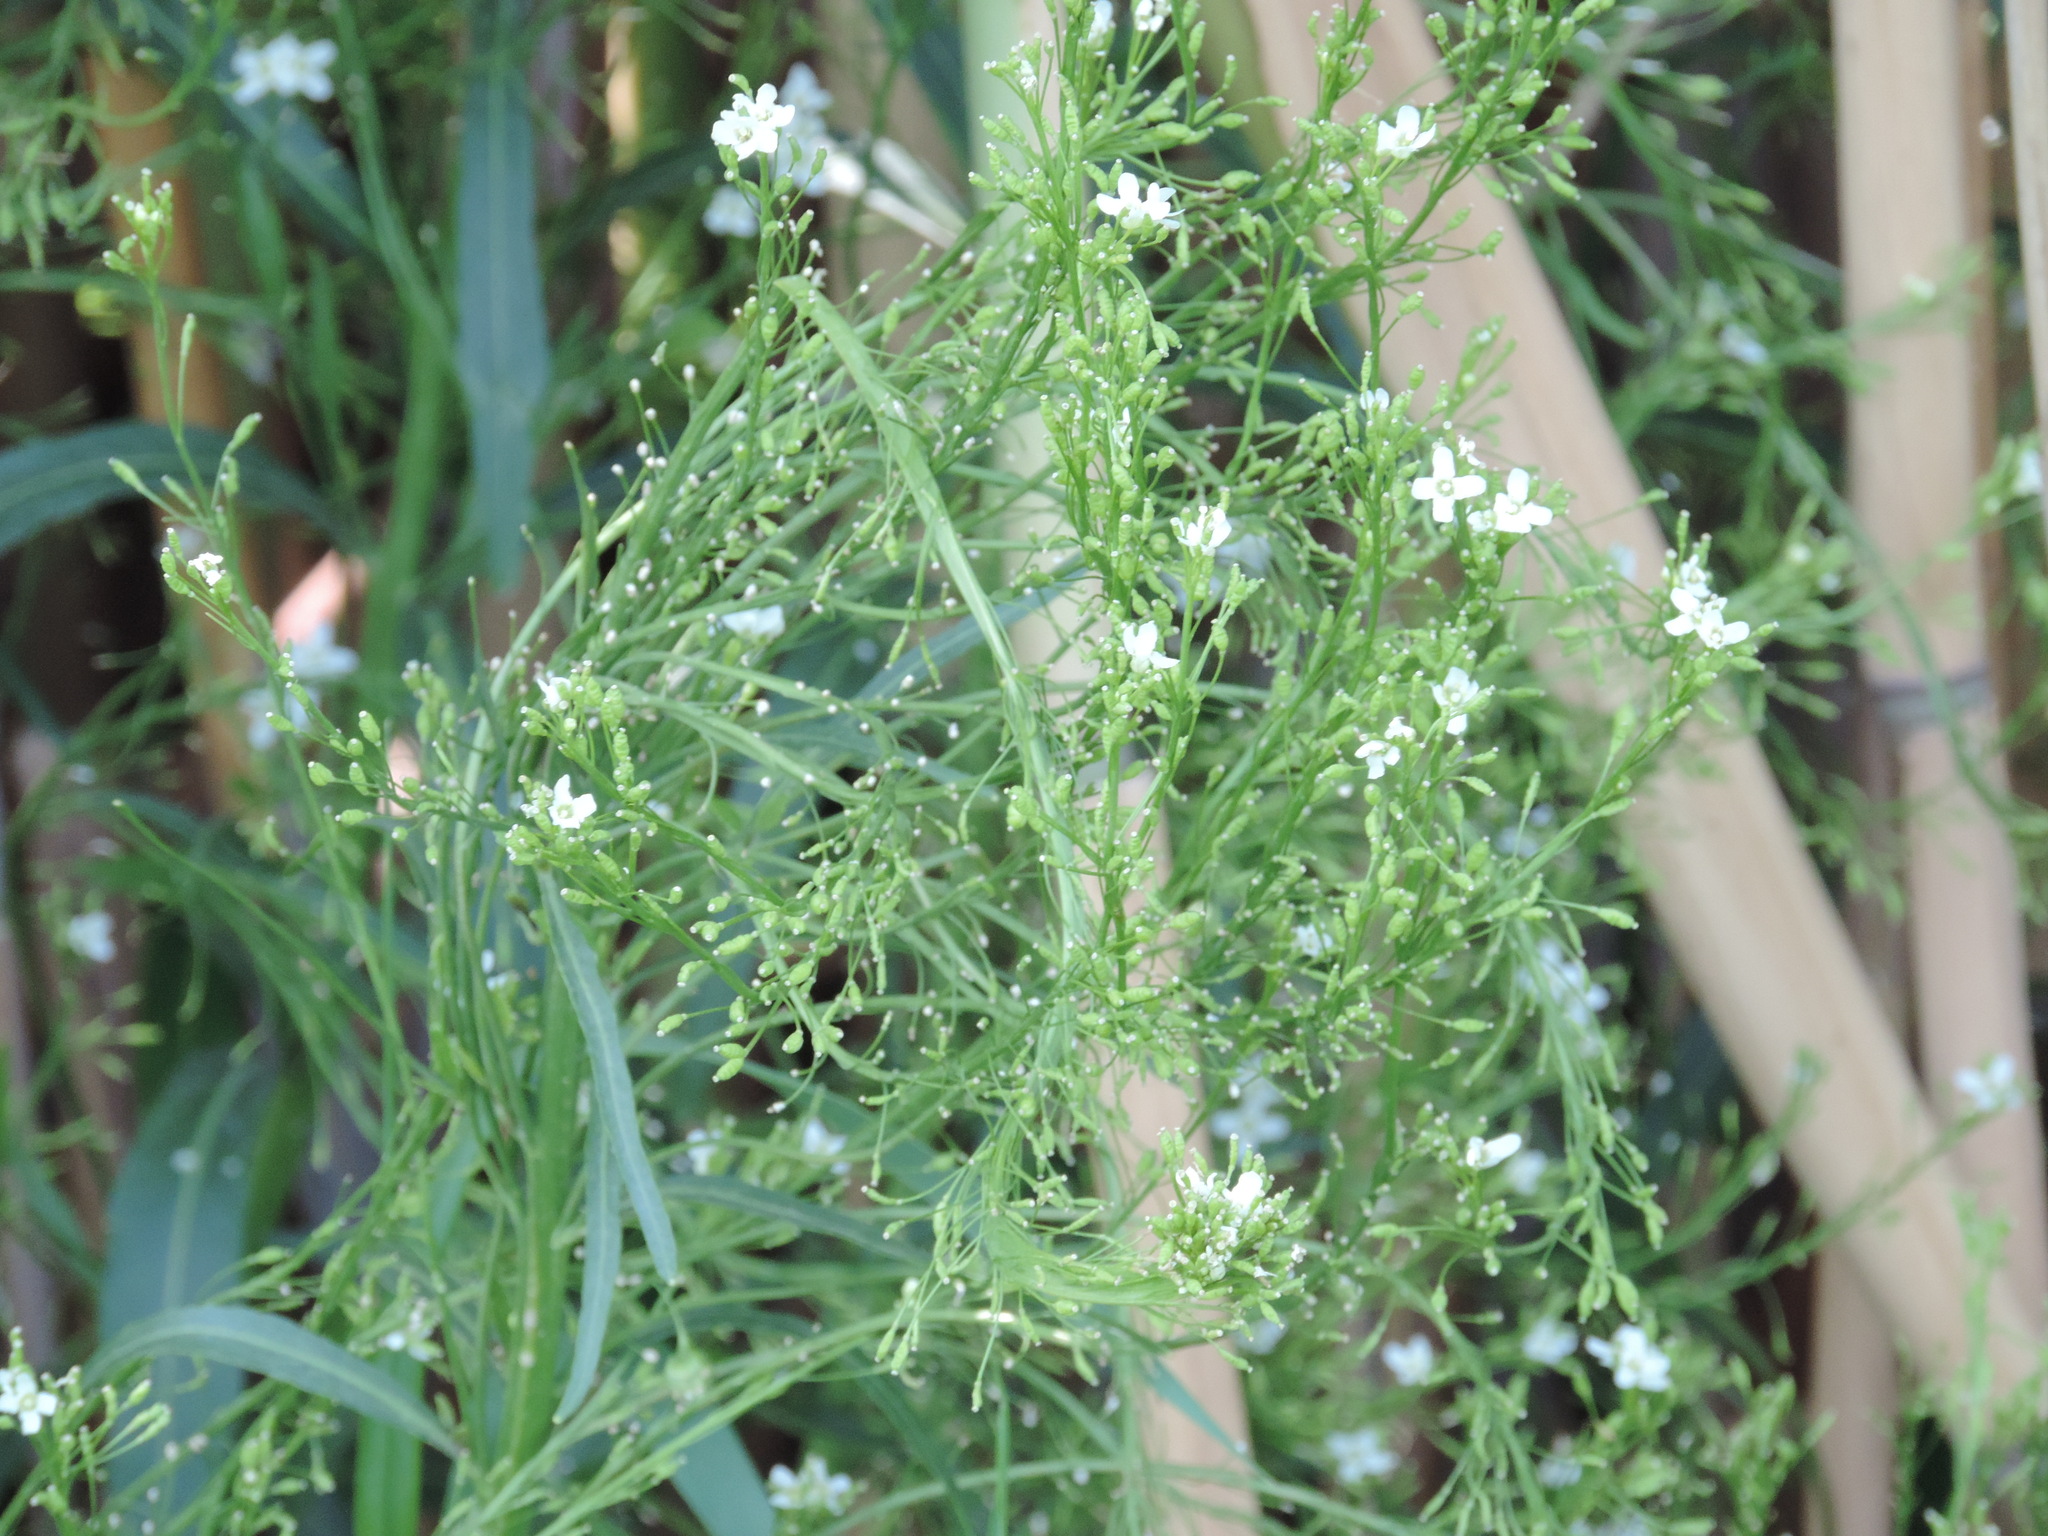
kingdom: Plantae
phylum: Tracheophyta
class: Magnoliopsida
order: Brassicales
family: Brassicaceae
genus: Armoracia
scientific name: Armoracia rusticana
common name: Horseradish
